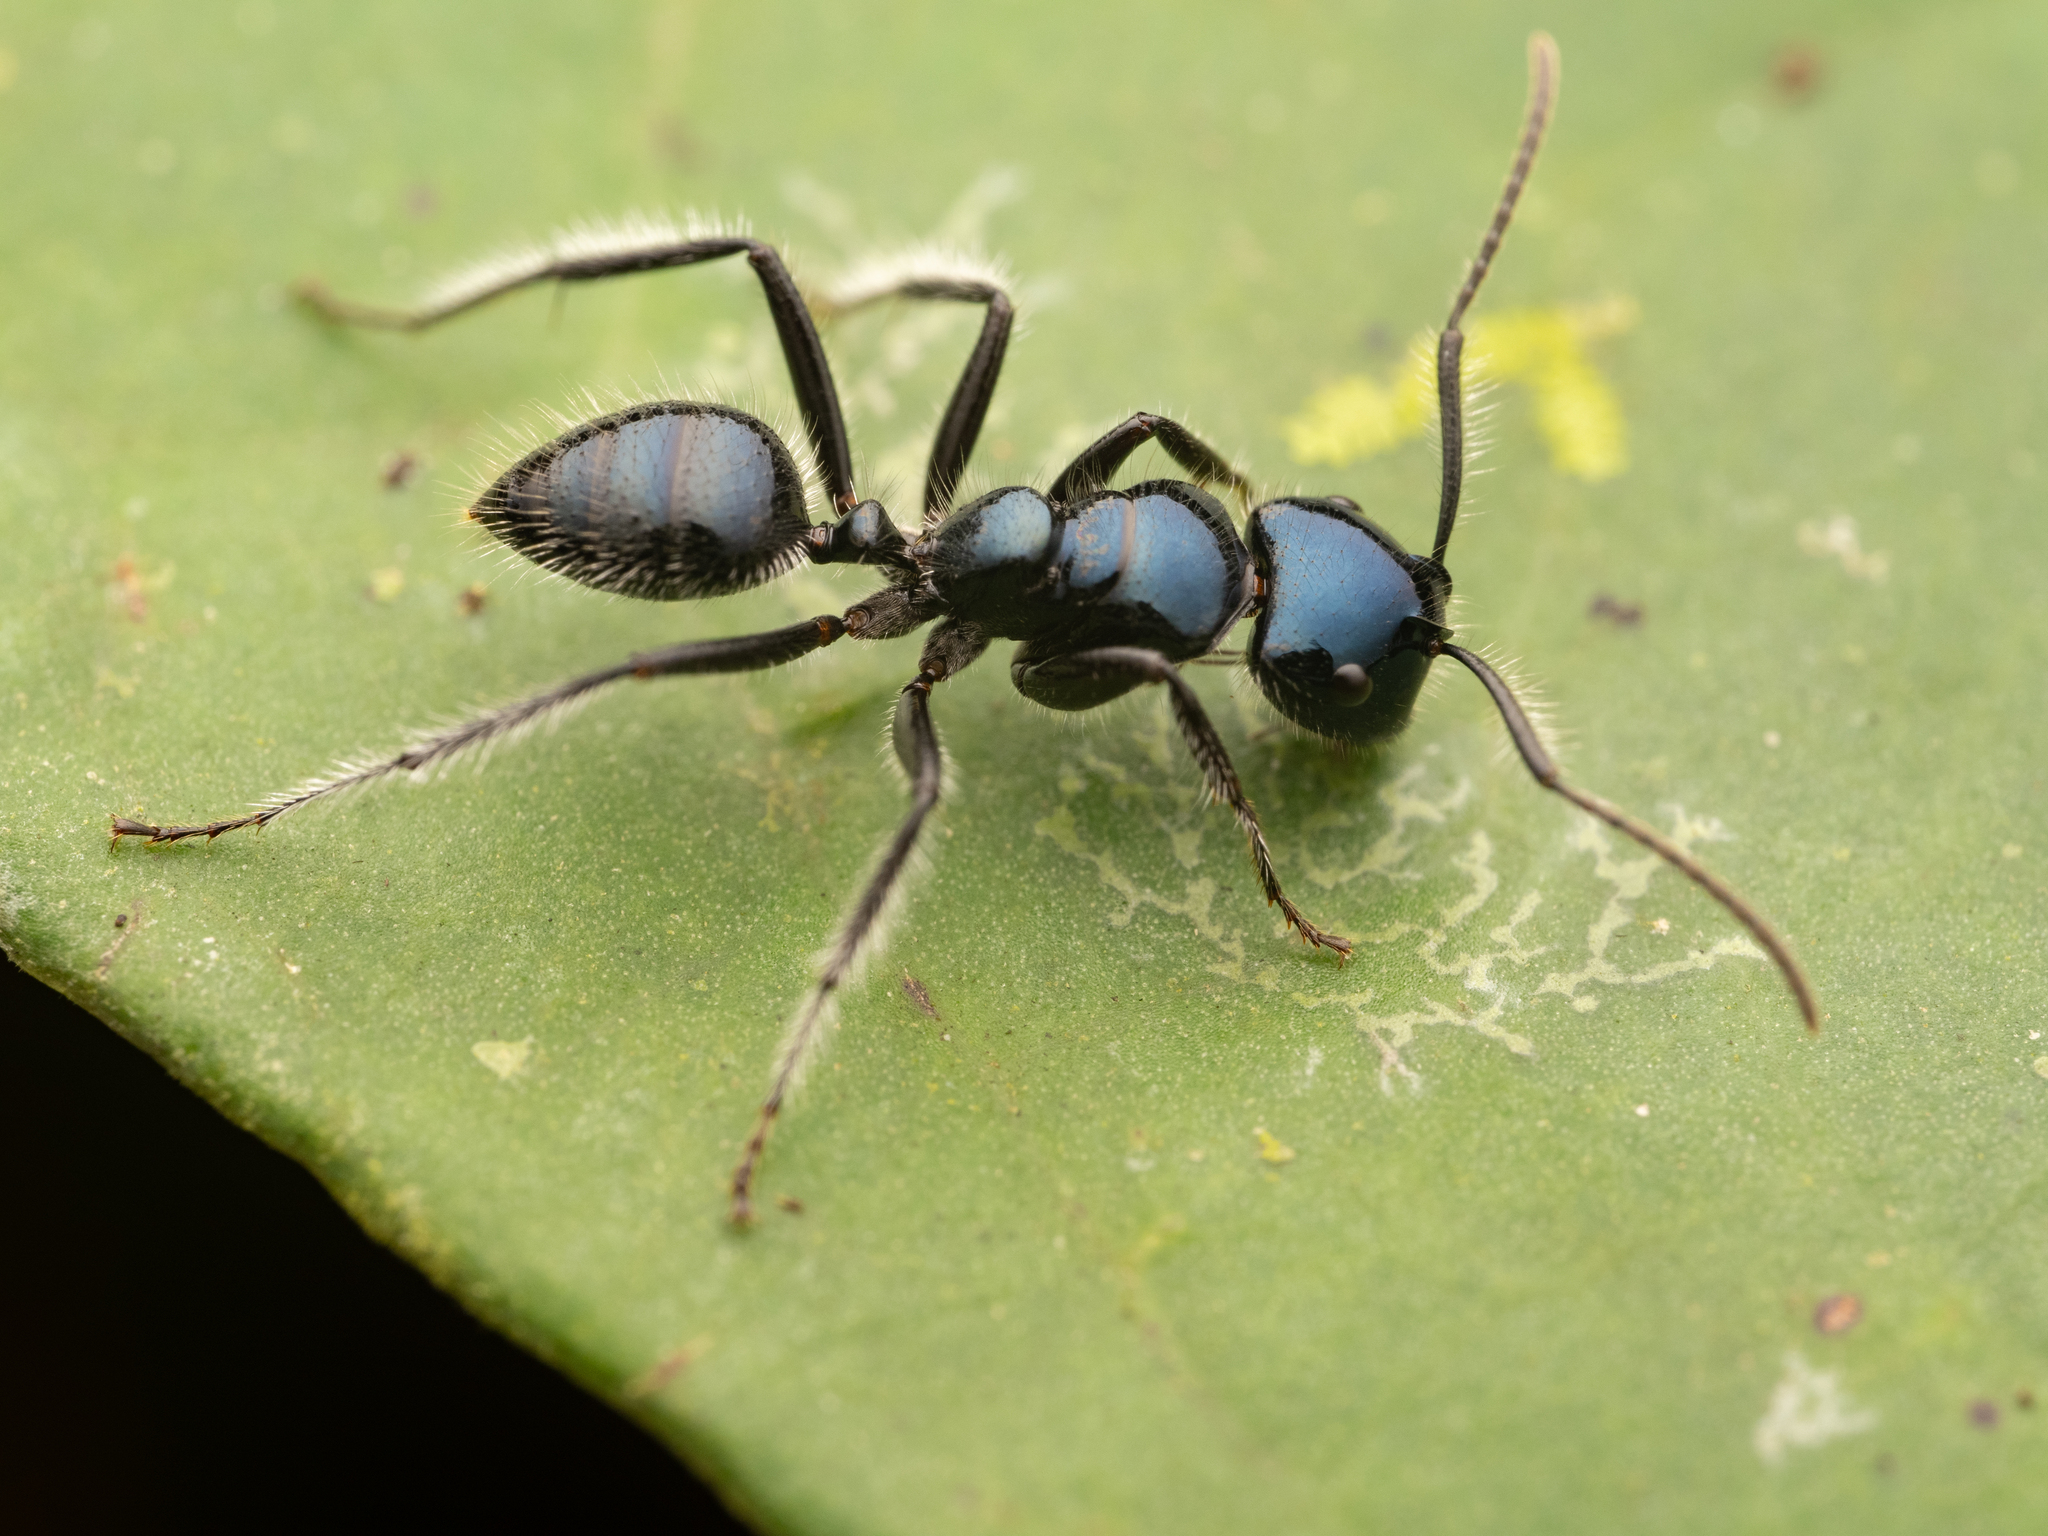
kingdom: Animalia
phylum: Arthropoda
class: Insecta
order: Hymenoptera
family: Formicidae
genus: Calomyrmex
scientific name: Calomyrmex laevissimus
